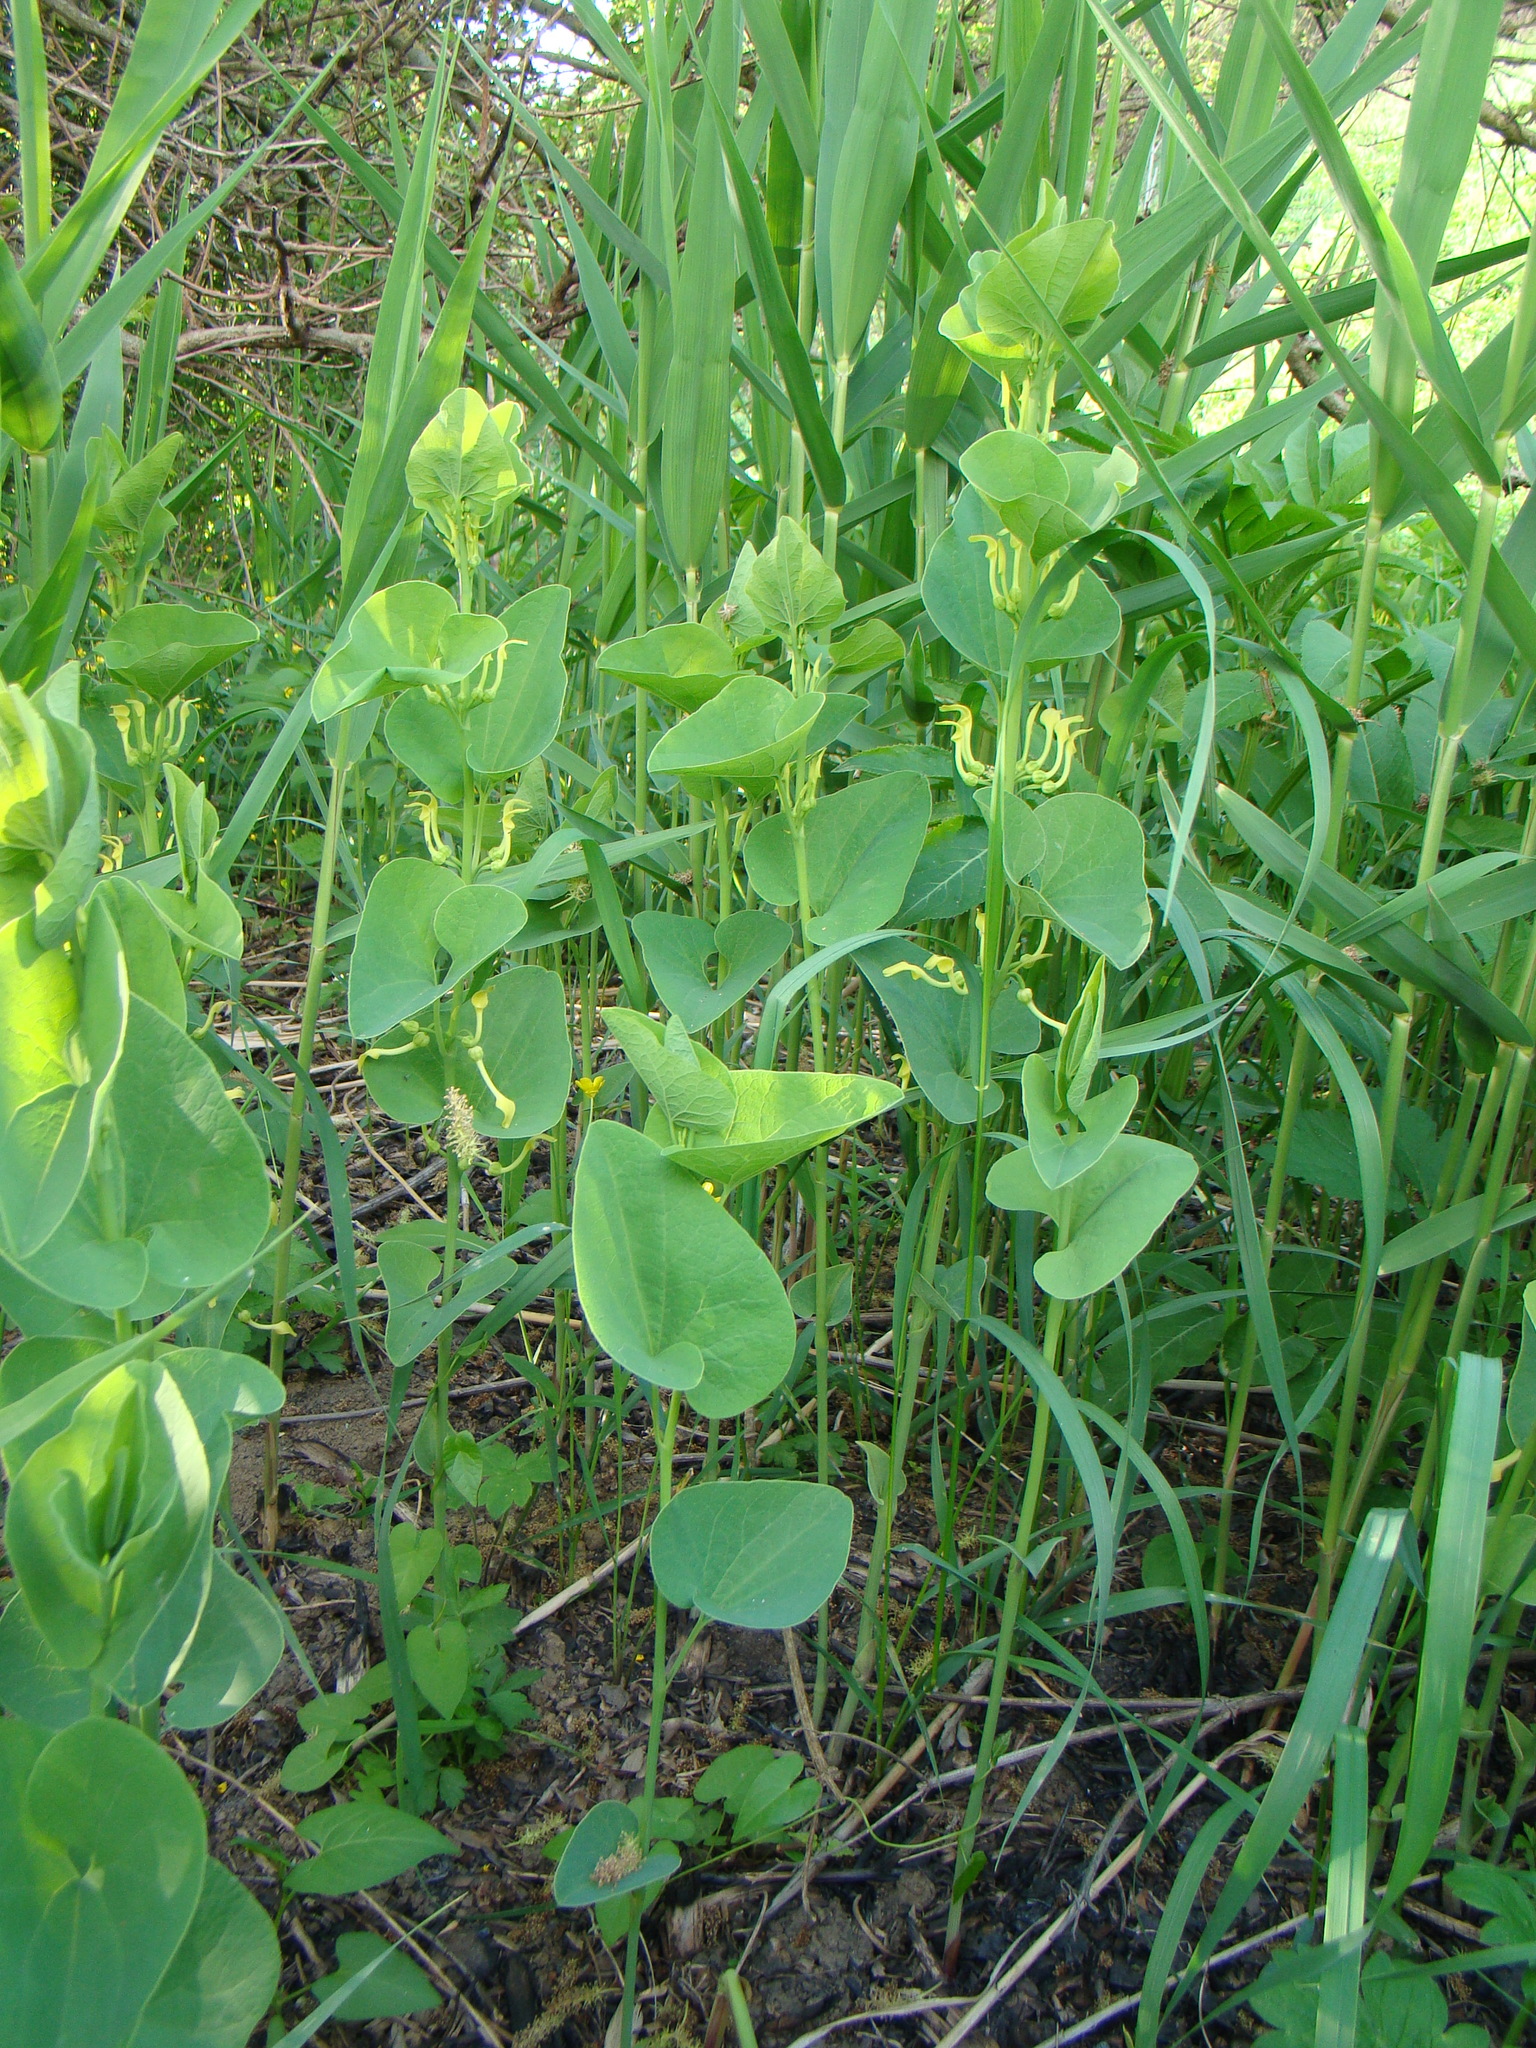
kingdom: Plantae
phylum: Tracheophyta
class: Magnoliopsida
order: Piperales
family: Aristolochiaceae
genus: Aristolochia
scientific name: Aristolochia clematitis
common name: Birthwort
